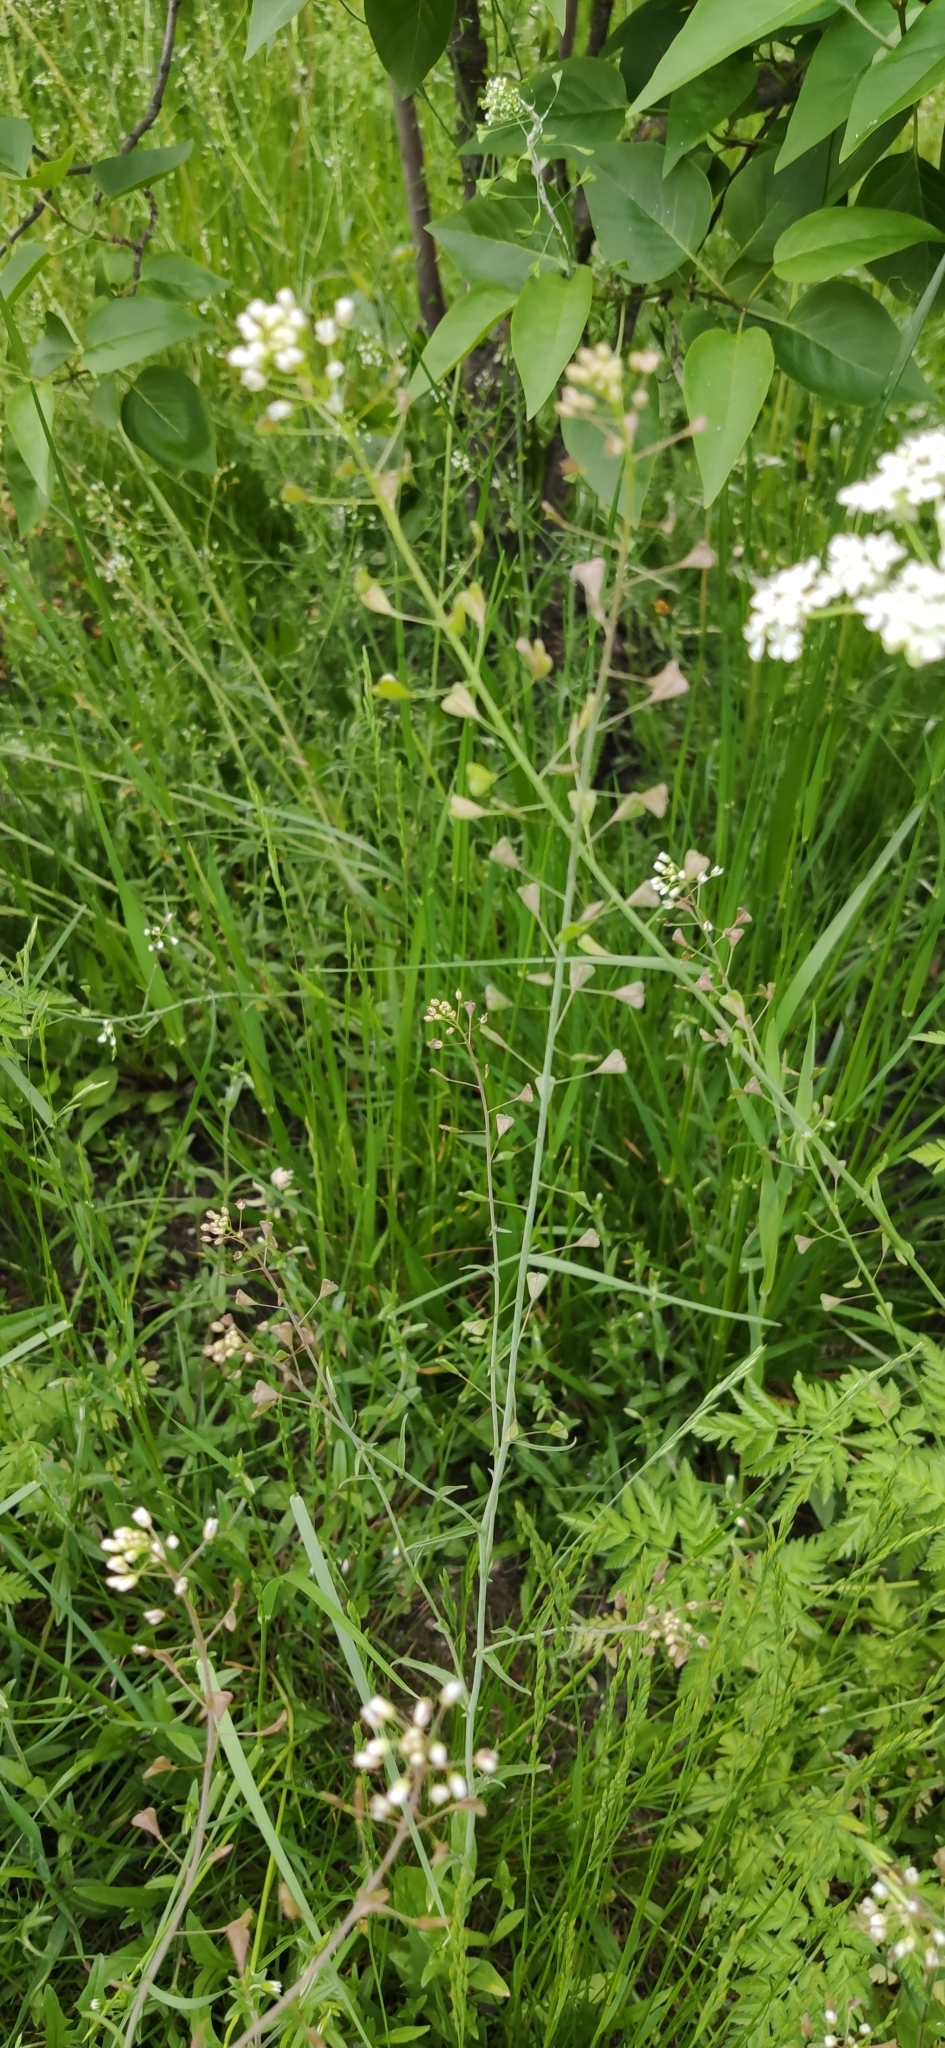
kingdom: Plantae
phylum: Tracheophyta
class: Magnoliopsida
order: Brassicales
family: Brassicaceae
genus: Capsella
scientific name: Capsella bursa-pastoris
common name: Shepherd's purse
